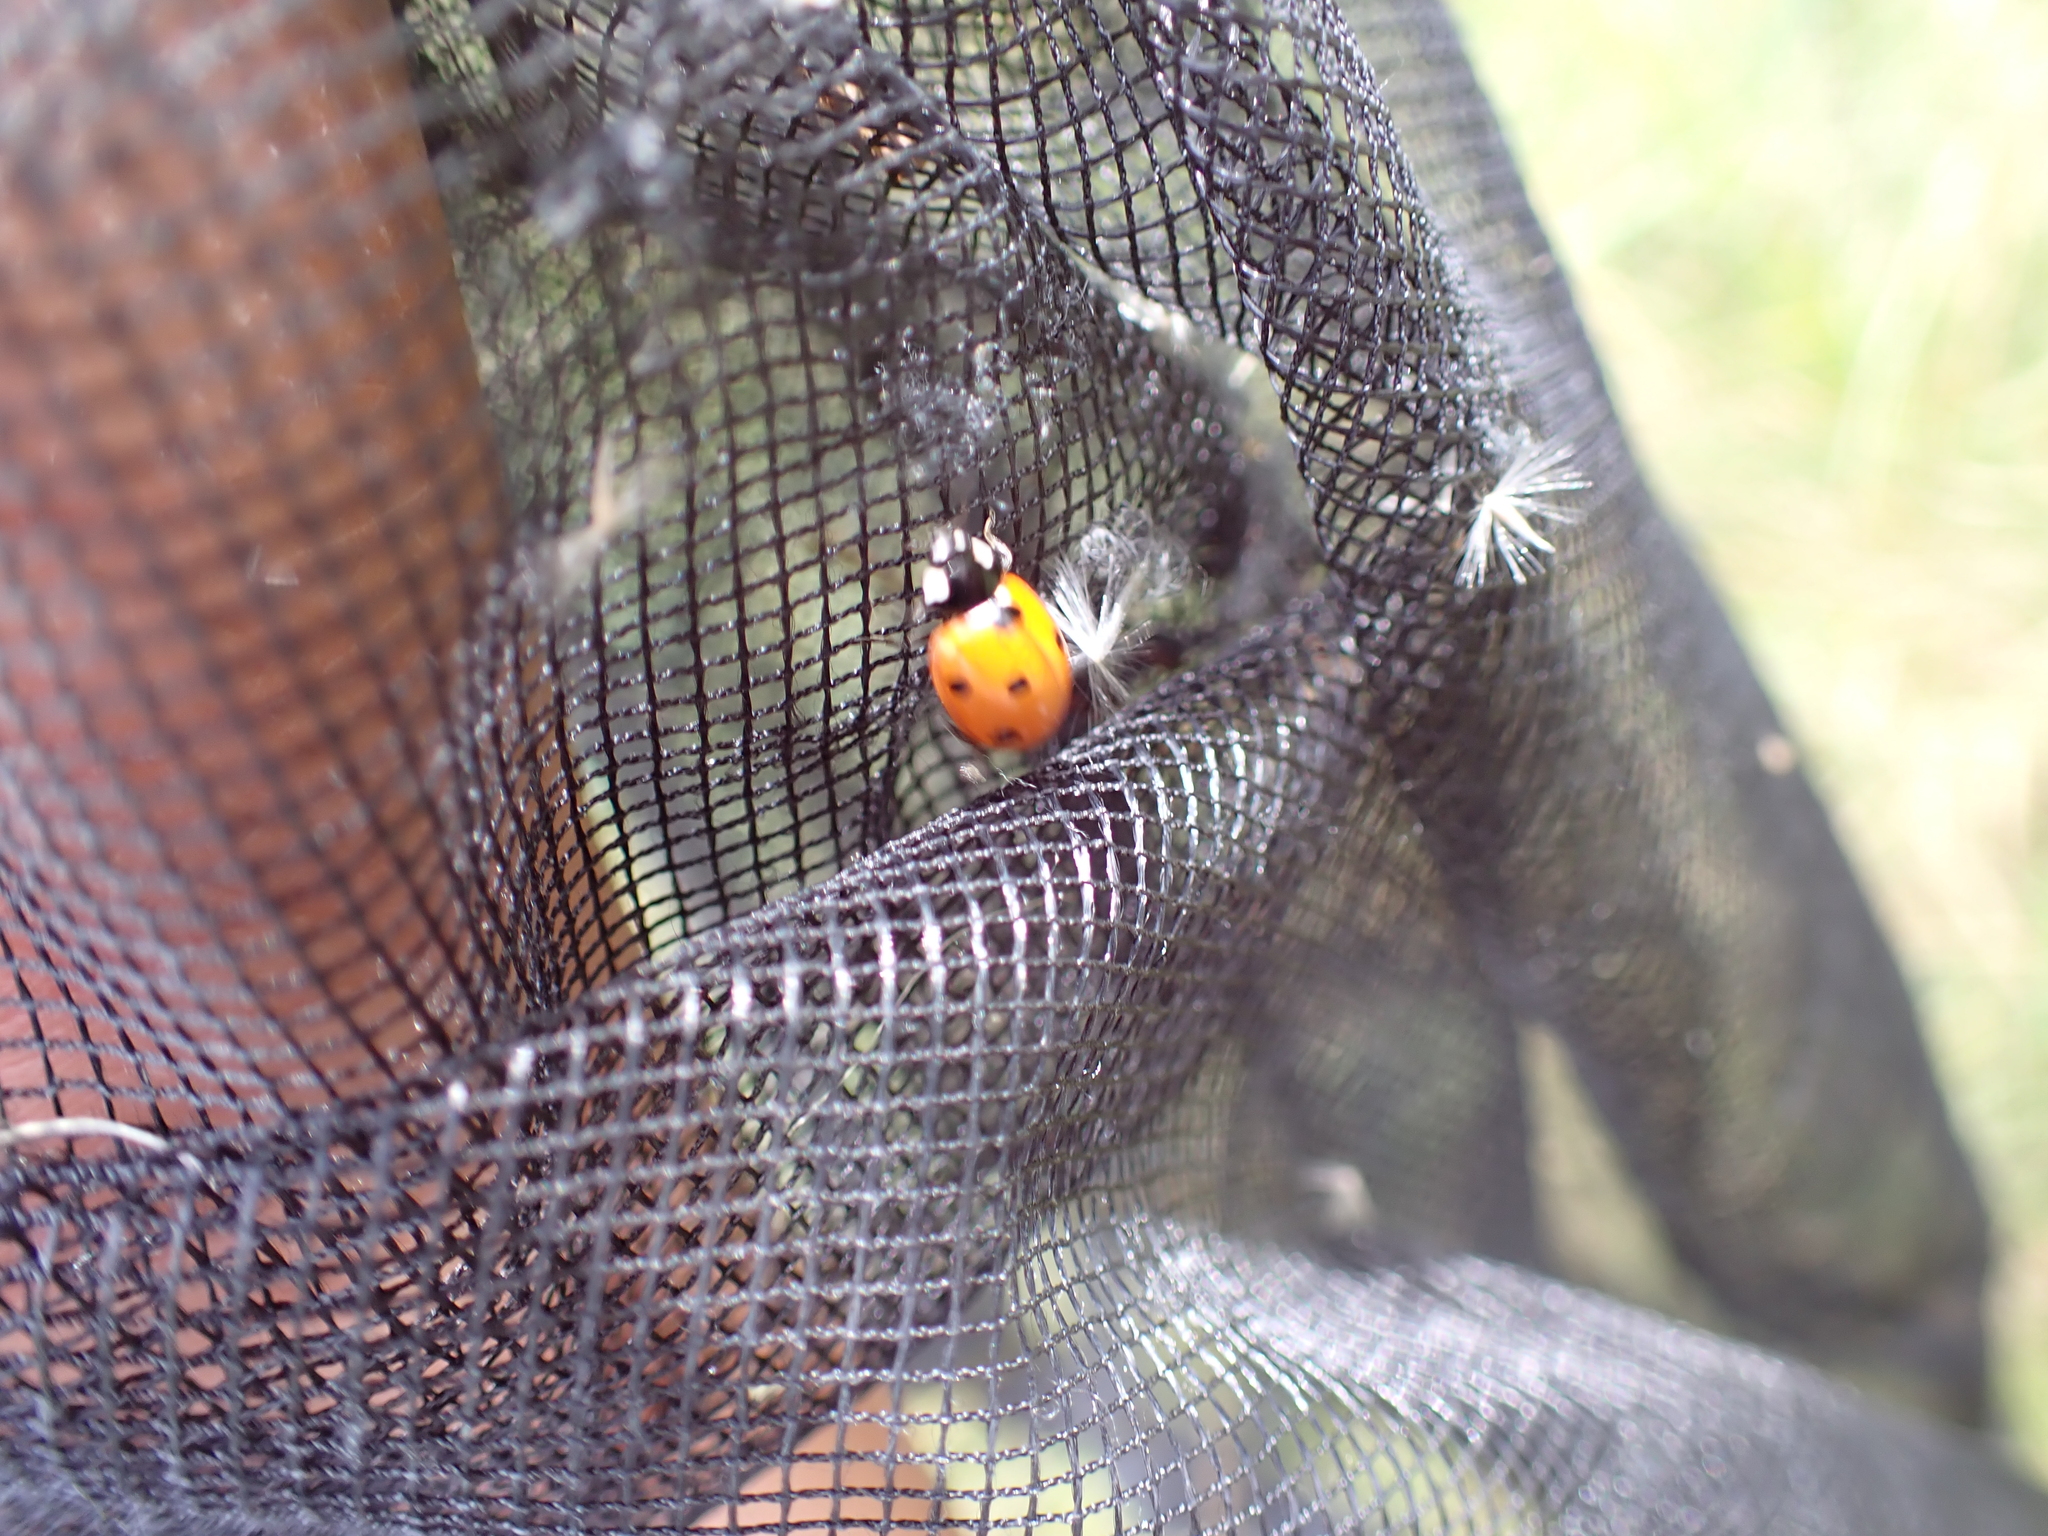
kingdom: Animalia
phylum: Arthropoda
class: Insecta
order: Coleoptera
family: Coccinellidae
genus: Coccinella
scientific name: Coccinella septempunctata
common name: Sevenspotted lady beetle
